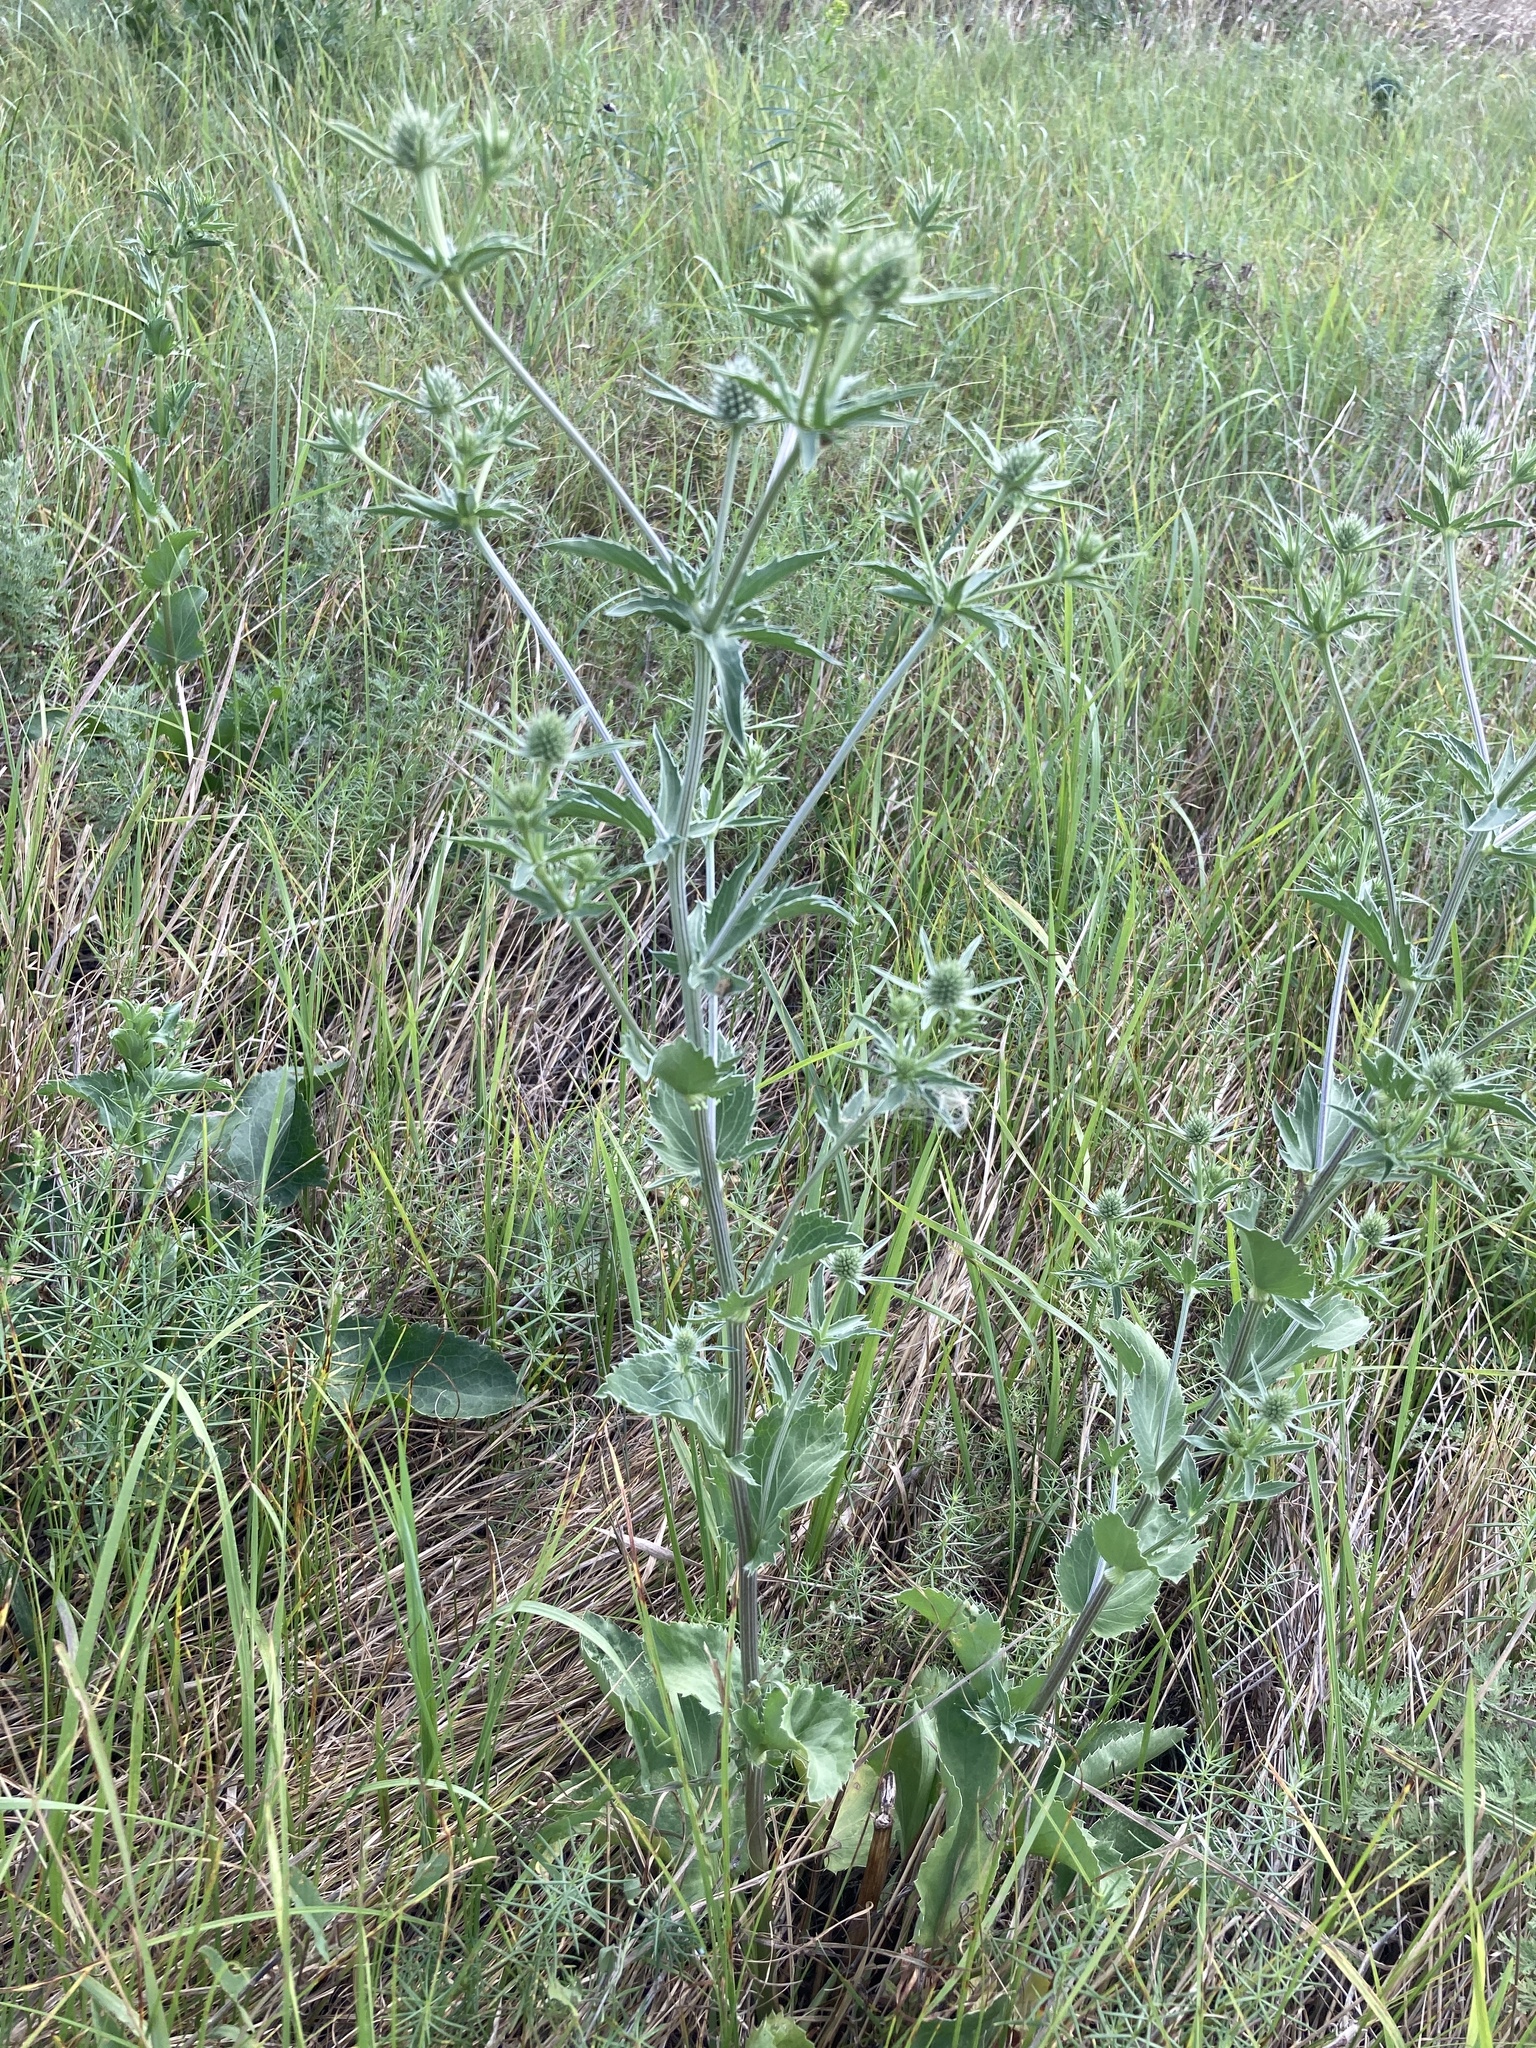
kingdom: Plantae
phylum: Tracheophyta
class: Magnoliopsida
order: Apiales
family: Apiaceae
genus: Eryngium
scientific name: Eryngium planum
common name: Blue eryngo
